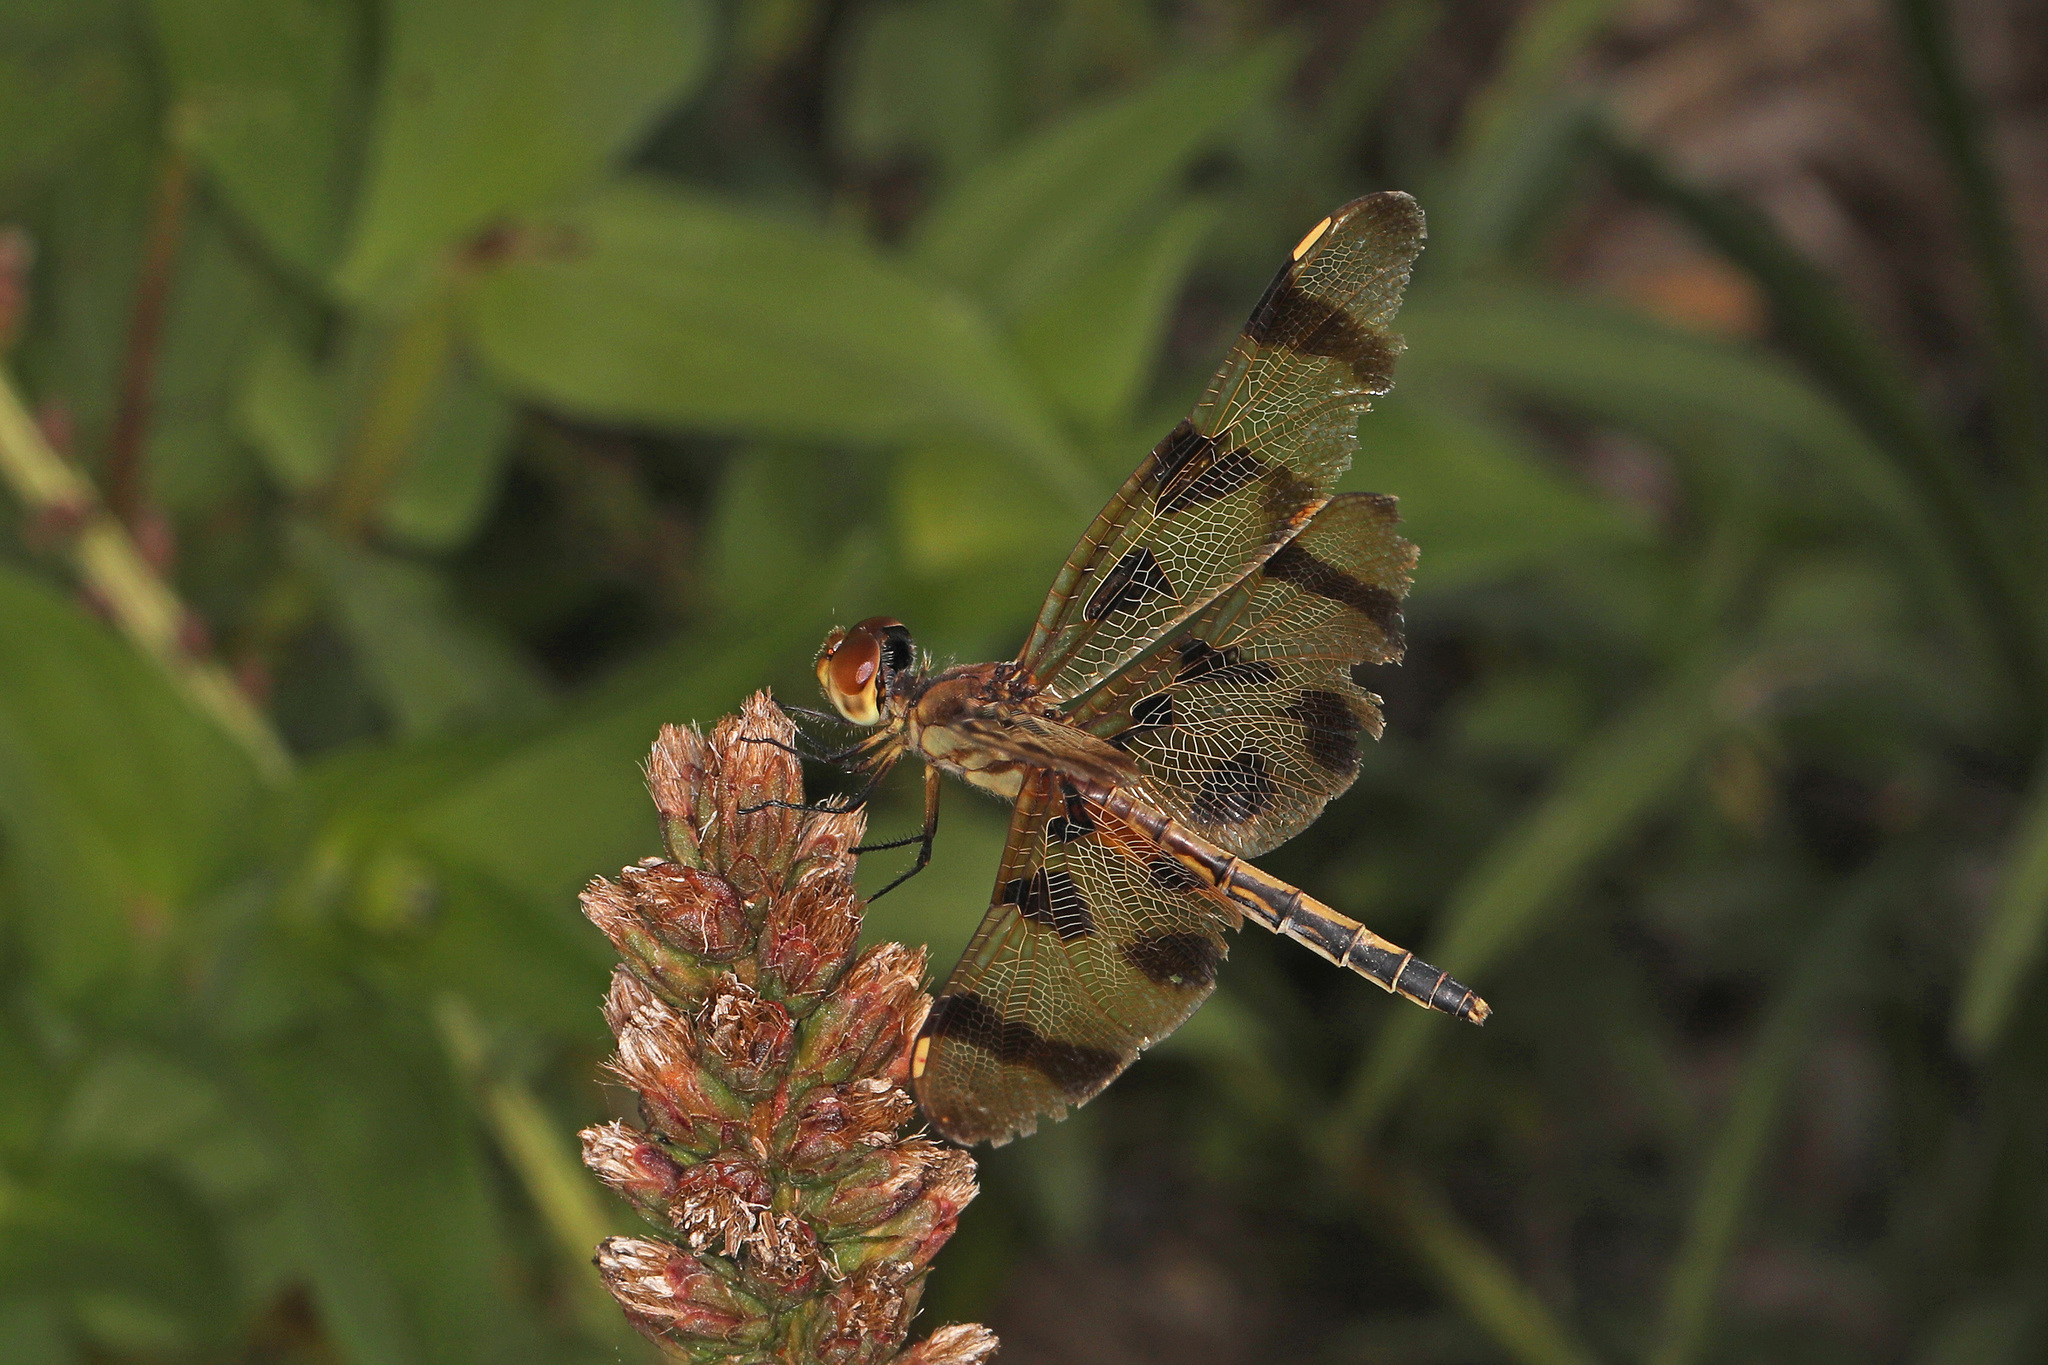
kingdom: Animalia
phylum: Arthropoda
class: Insecta
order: Odonata
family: Libellulidae
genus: Celithemis
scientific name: Celithemis eponina
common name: Halloween pennant
